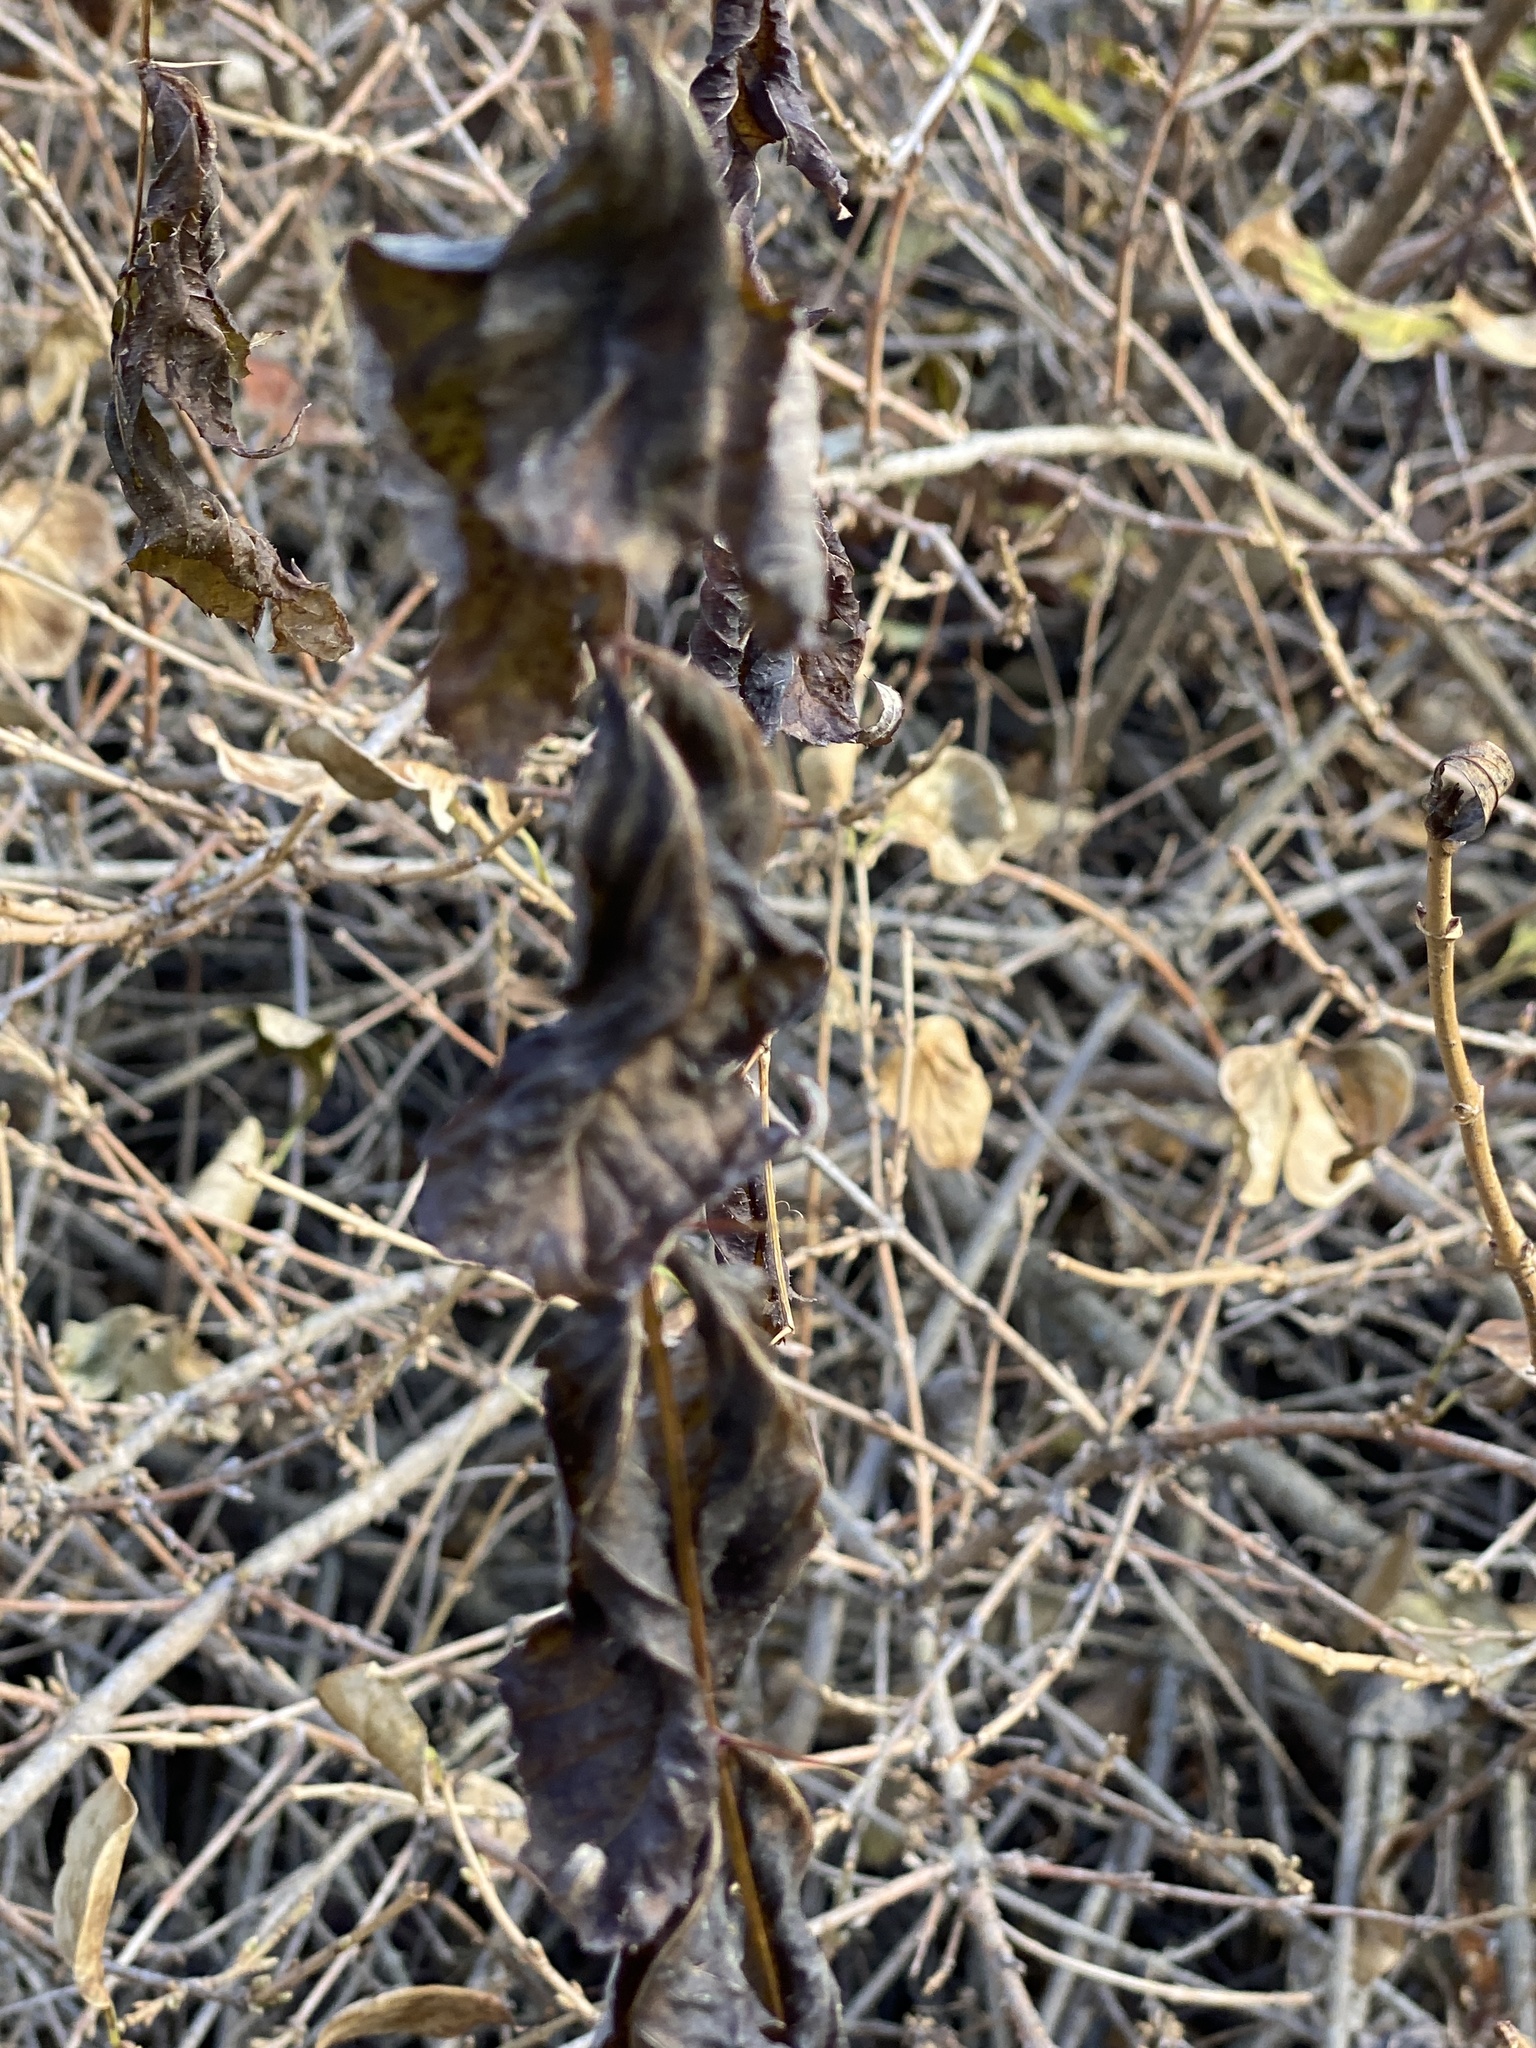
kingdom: Plantae
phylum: Tracheophyta
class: Magnoliopsida
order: Apiales
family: Araliaceae
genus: Aralia
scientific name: Aralia elata
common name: Japanese angelica-tree
